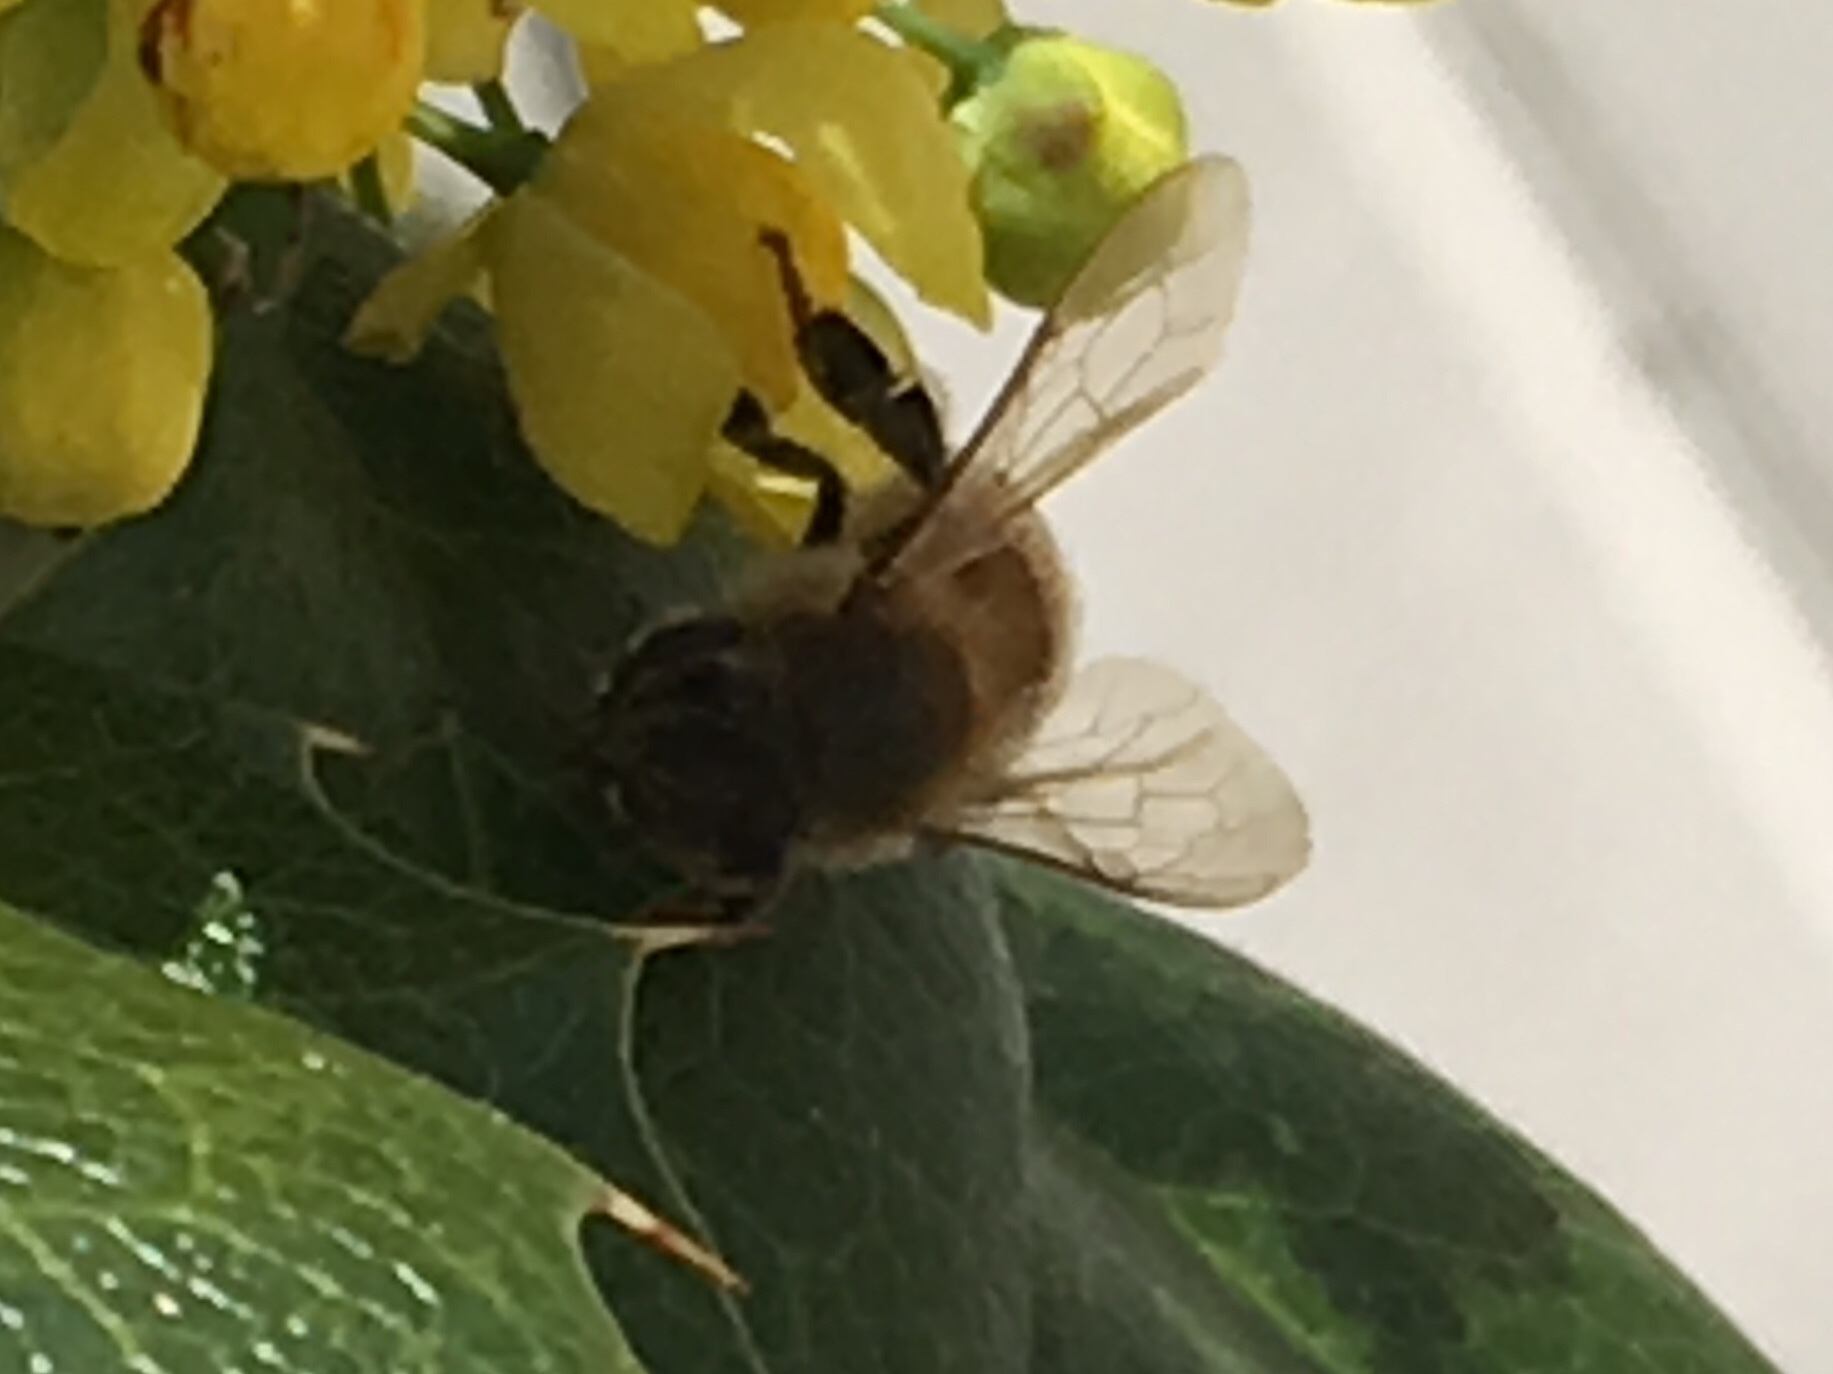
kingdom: Animalia
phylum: Arthropoda
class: Insecta
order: Hymenoptera
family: Apidae
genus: Apis
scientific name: Apis mellifera
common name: Honey bee
